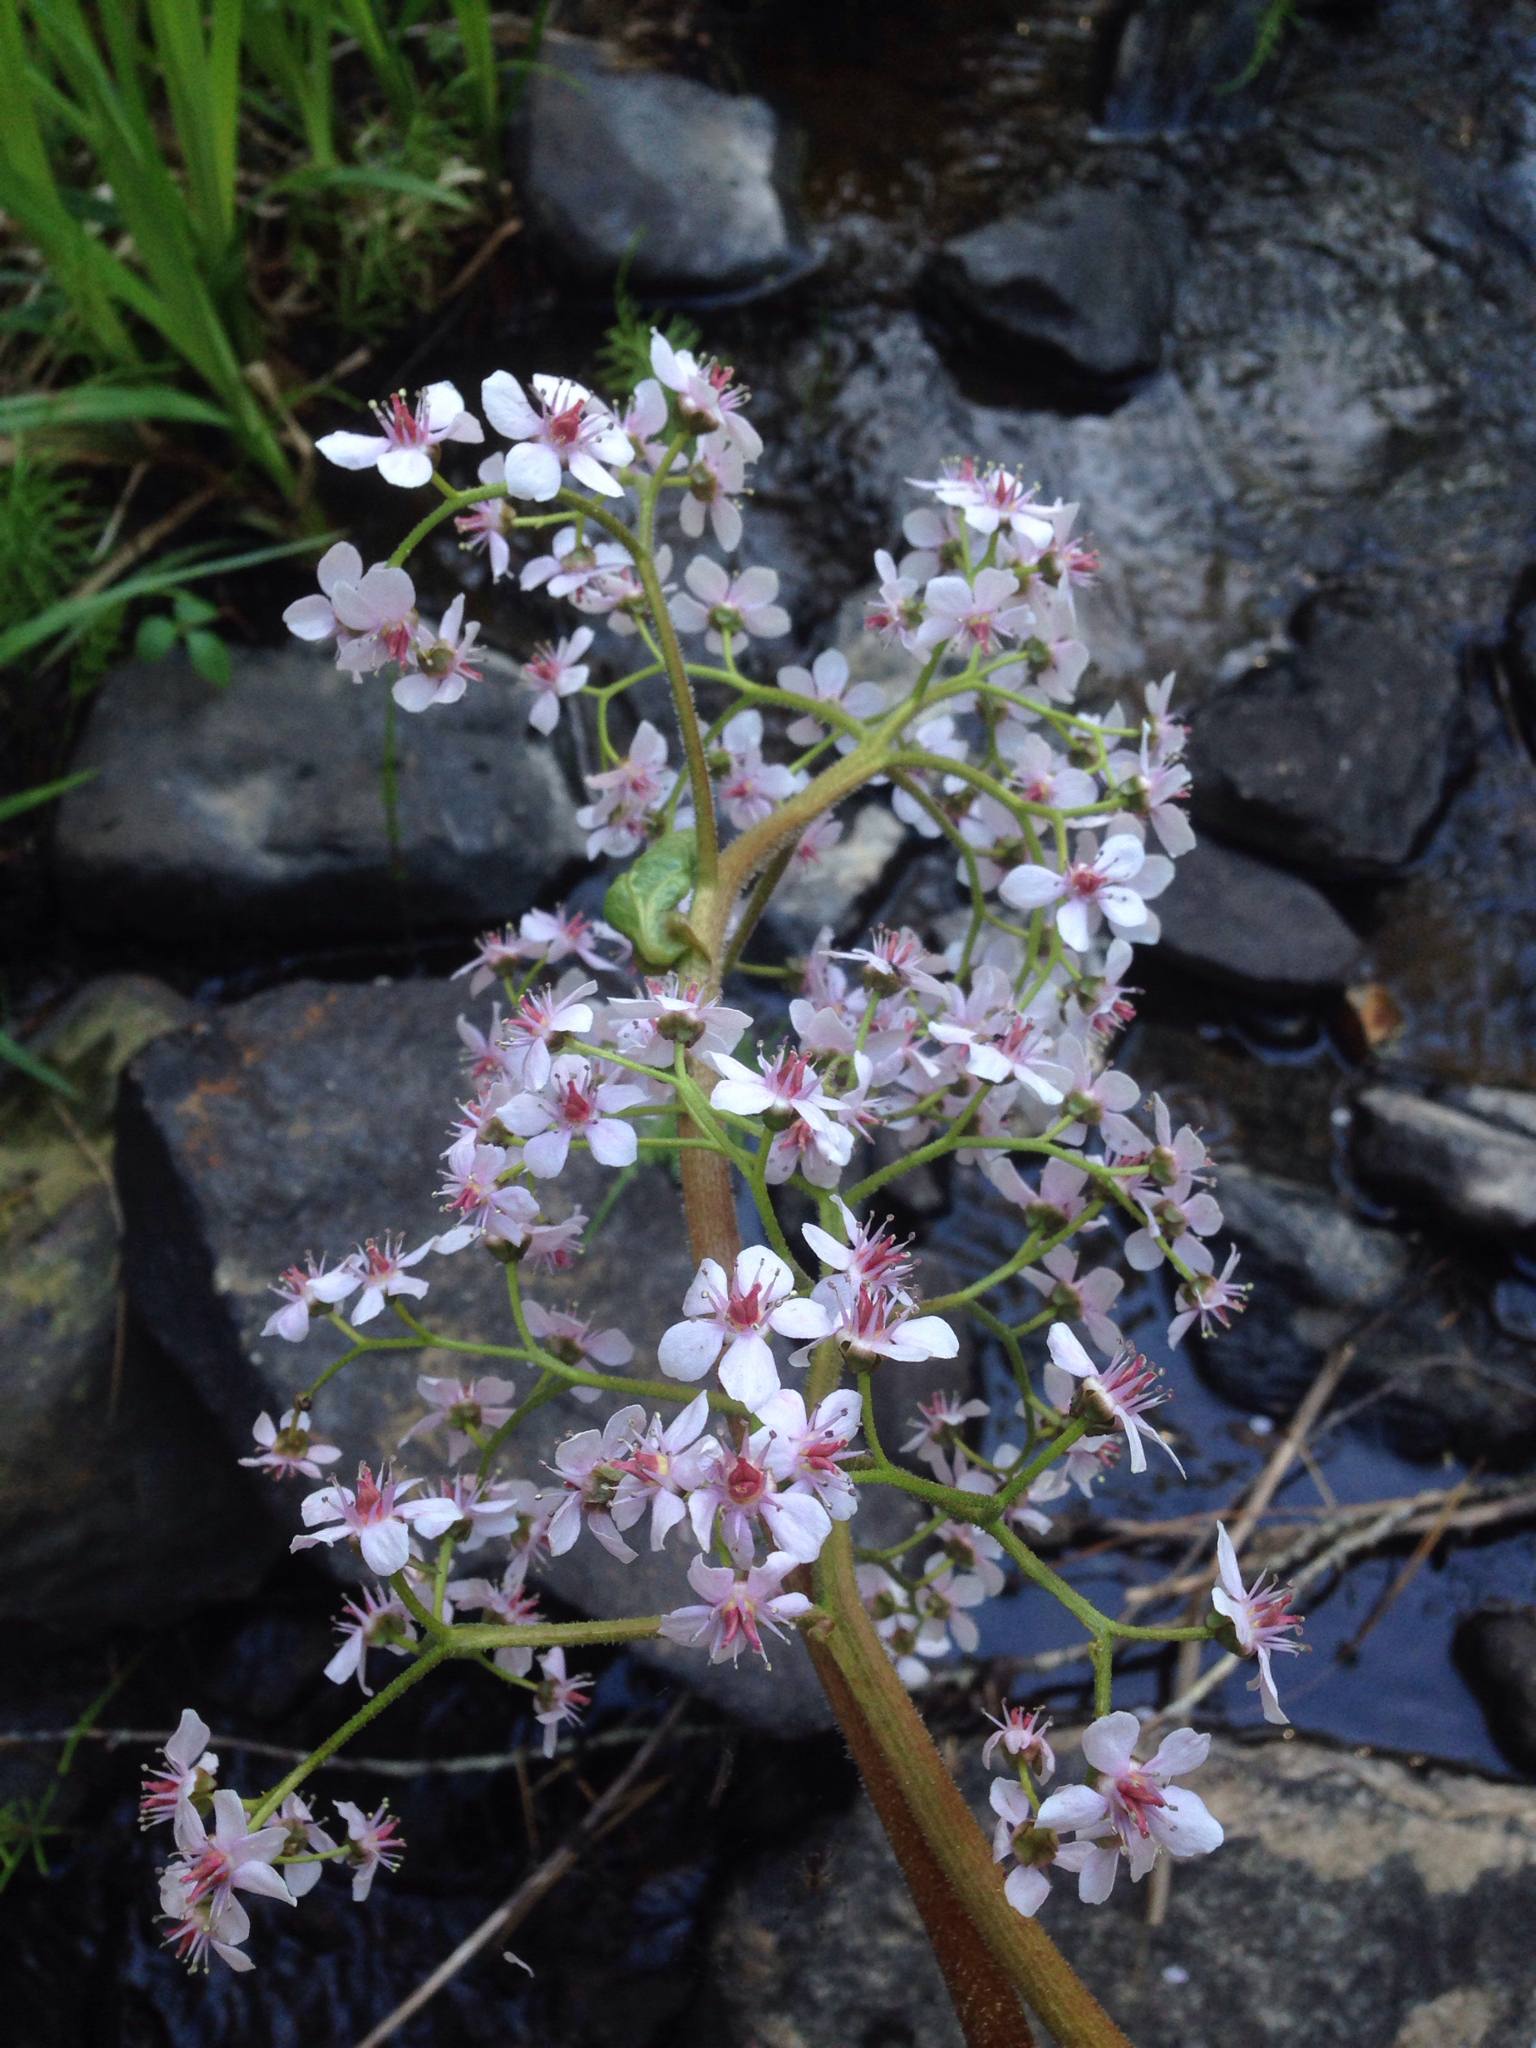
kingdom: Plantae
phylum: Tracheophyta
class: Magnoliopsida
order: Saxifragales
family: Saxifragaceae
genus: Darmera
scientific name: Darmera peltata
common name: Indian-rhubarb
